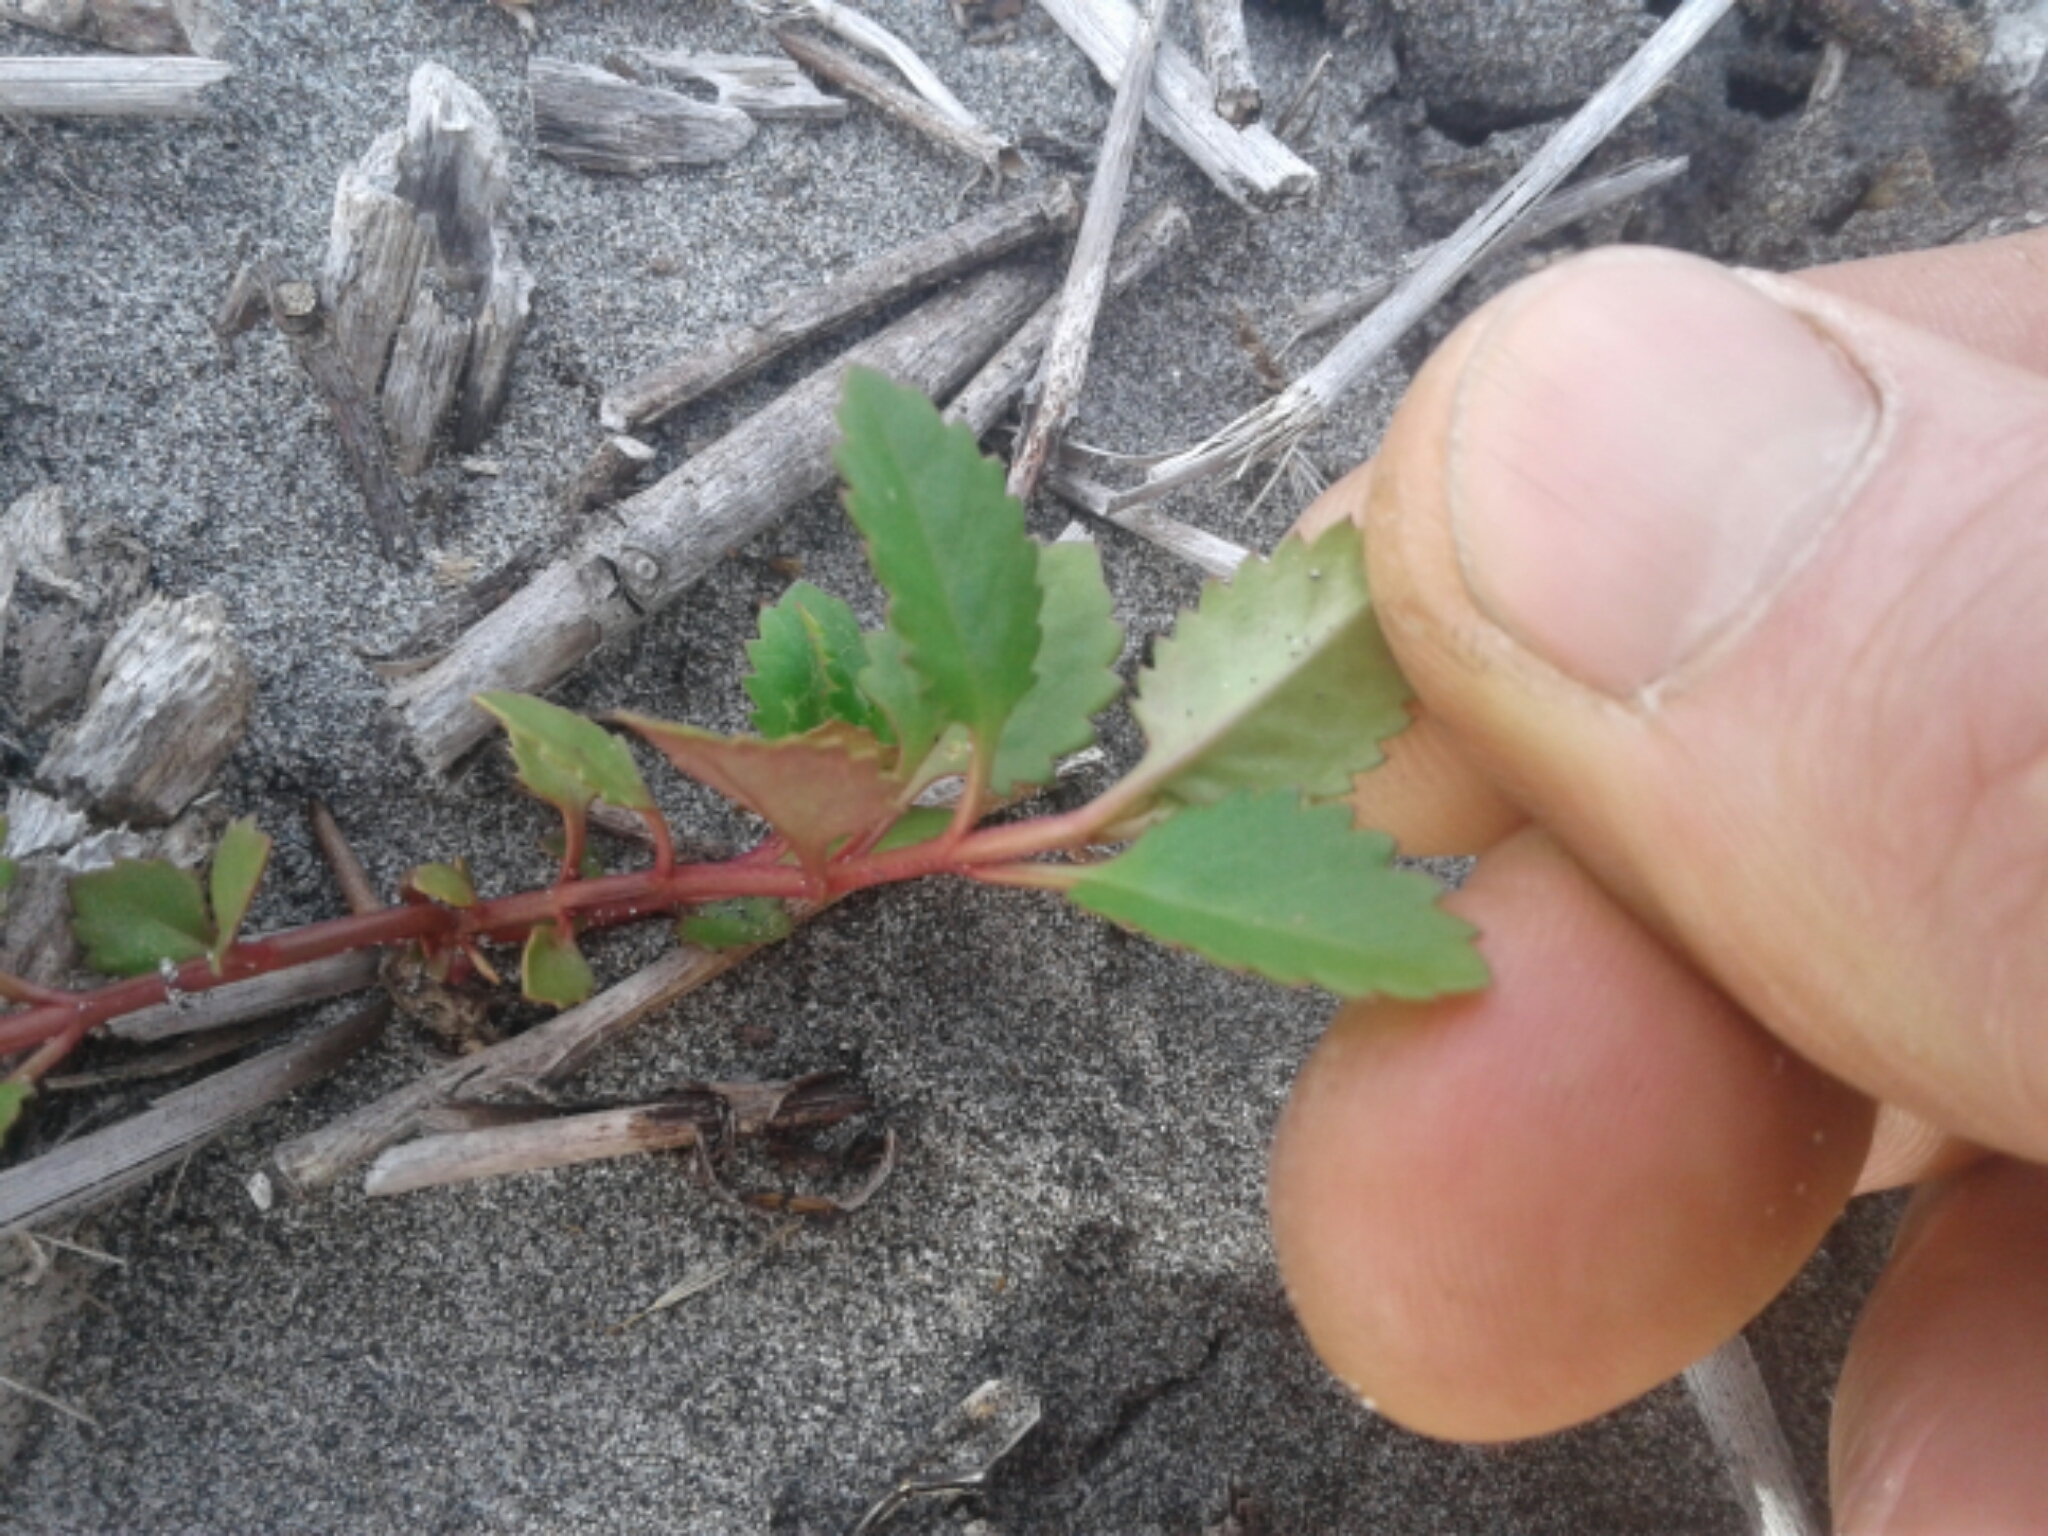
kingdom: Plantae
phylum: Tracheophyta
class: Magnoliopsida
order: Saxifragales
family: Haloragaceae
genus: Haloragis
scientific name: Haloragis erecta
